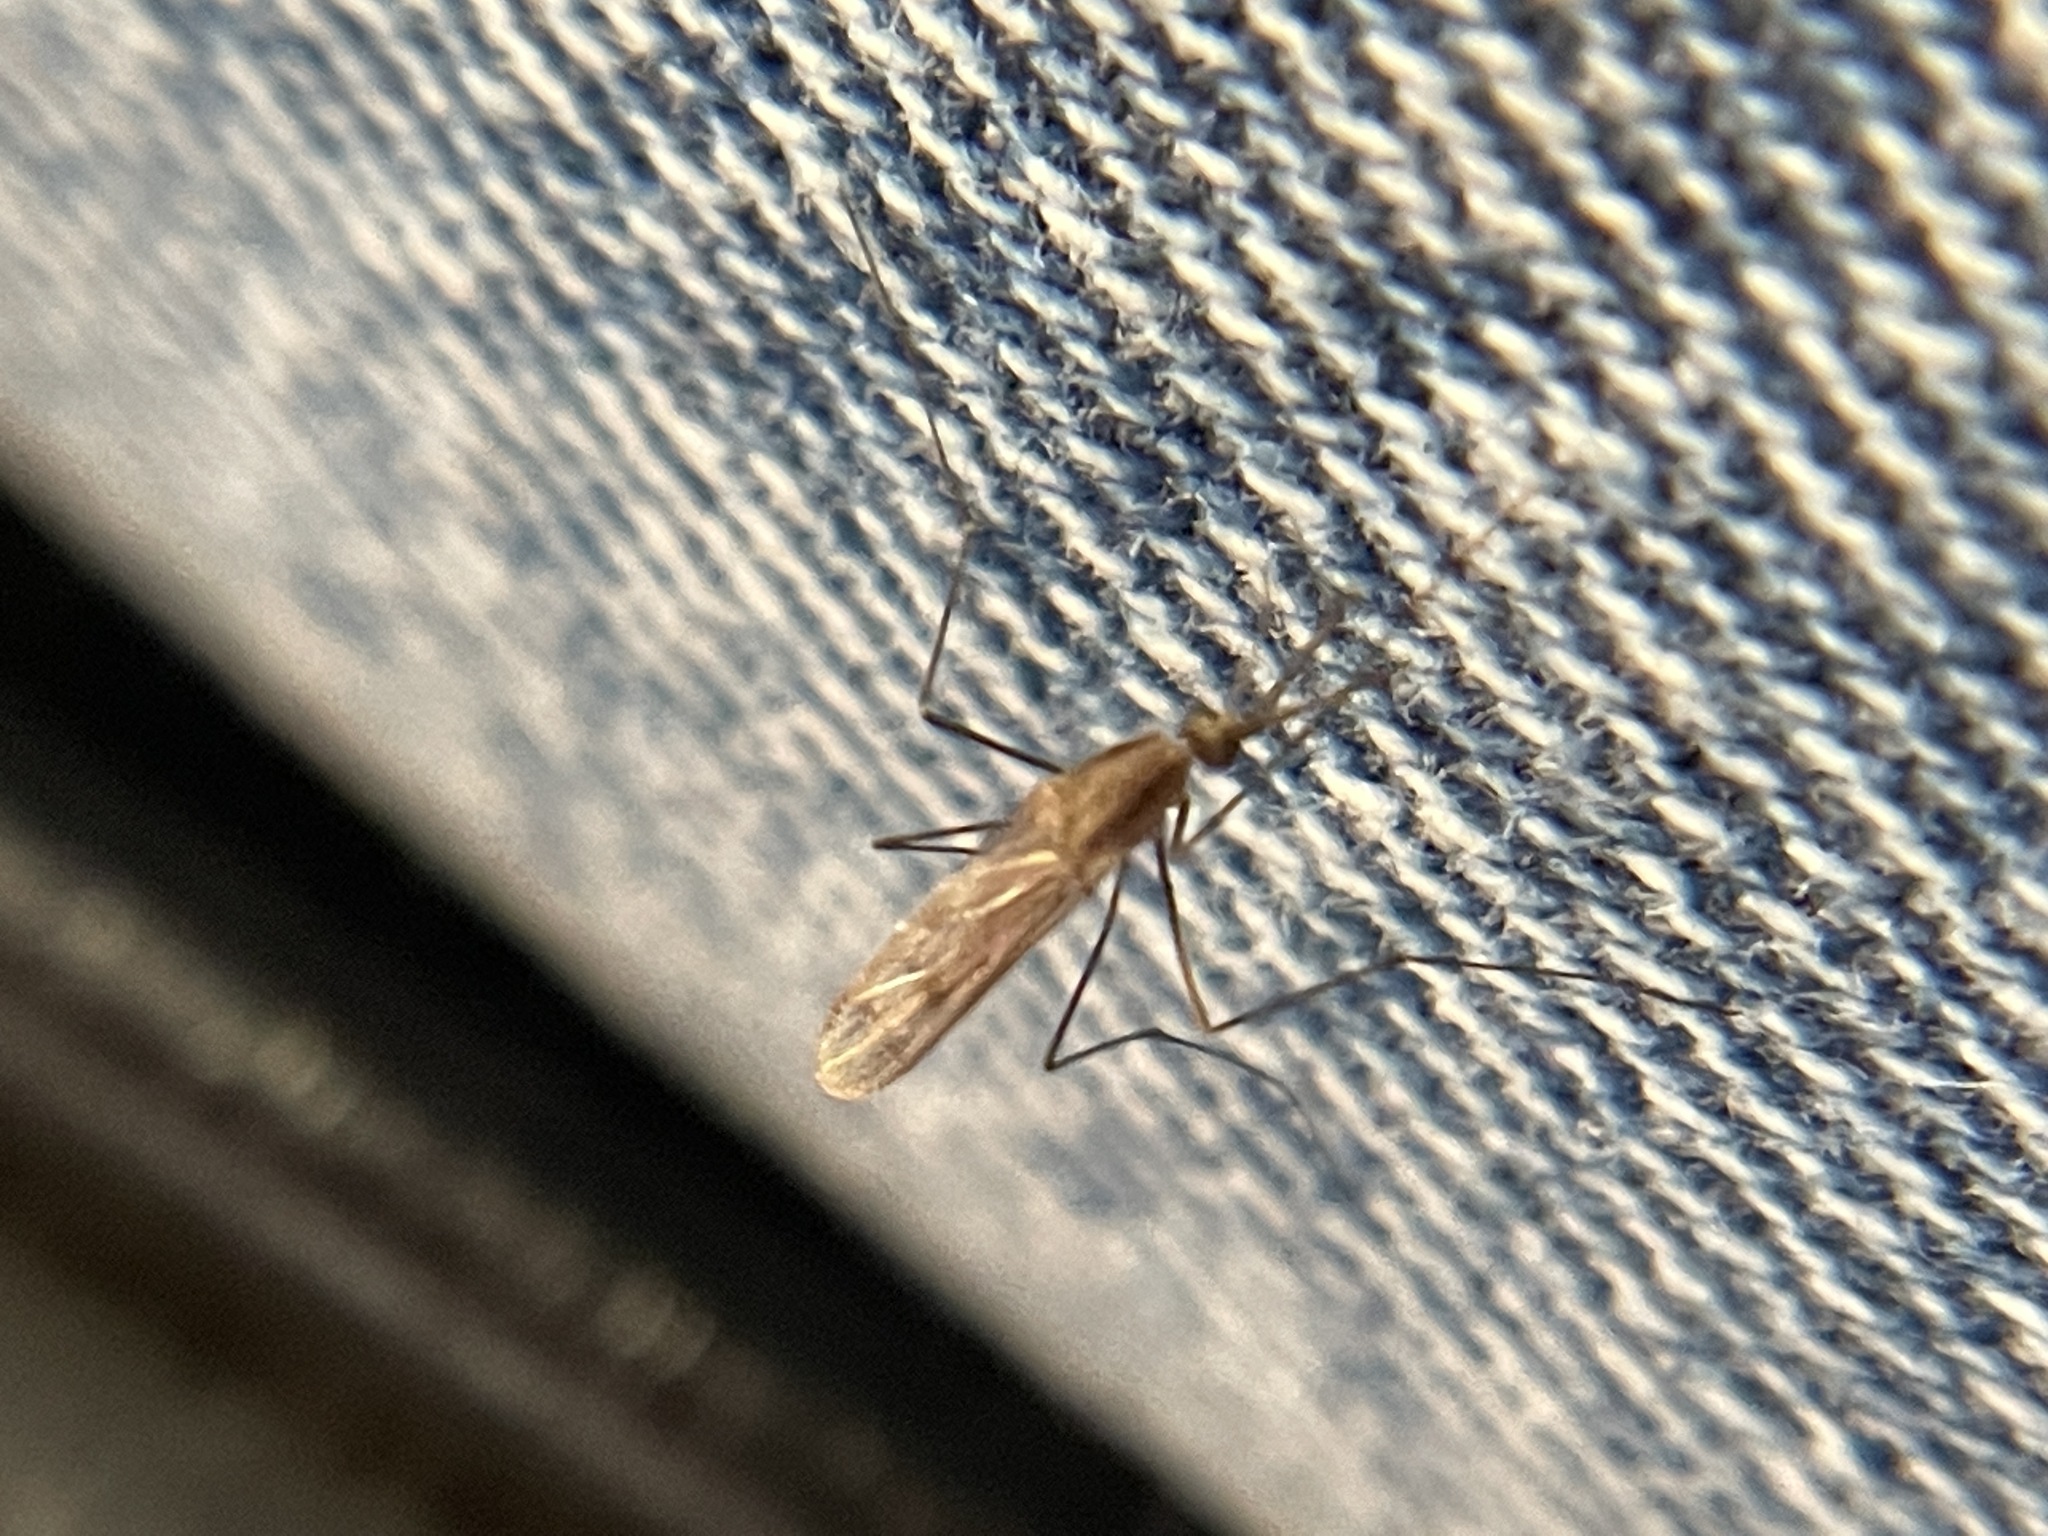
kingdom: Animalia
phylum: Arthropoda
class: Insecta
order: Diptera
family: Culicidae
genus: Anopheles
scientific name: Anopheles freeborni
